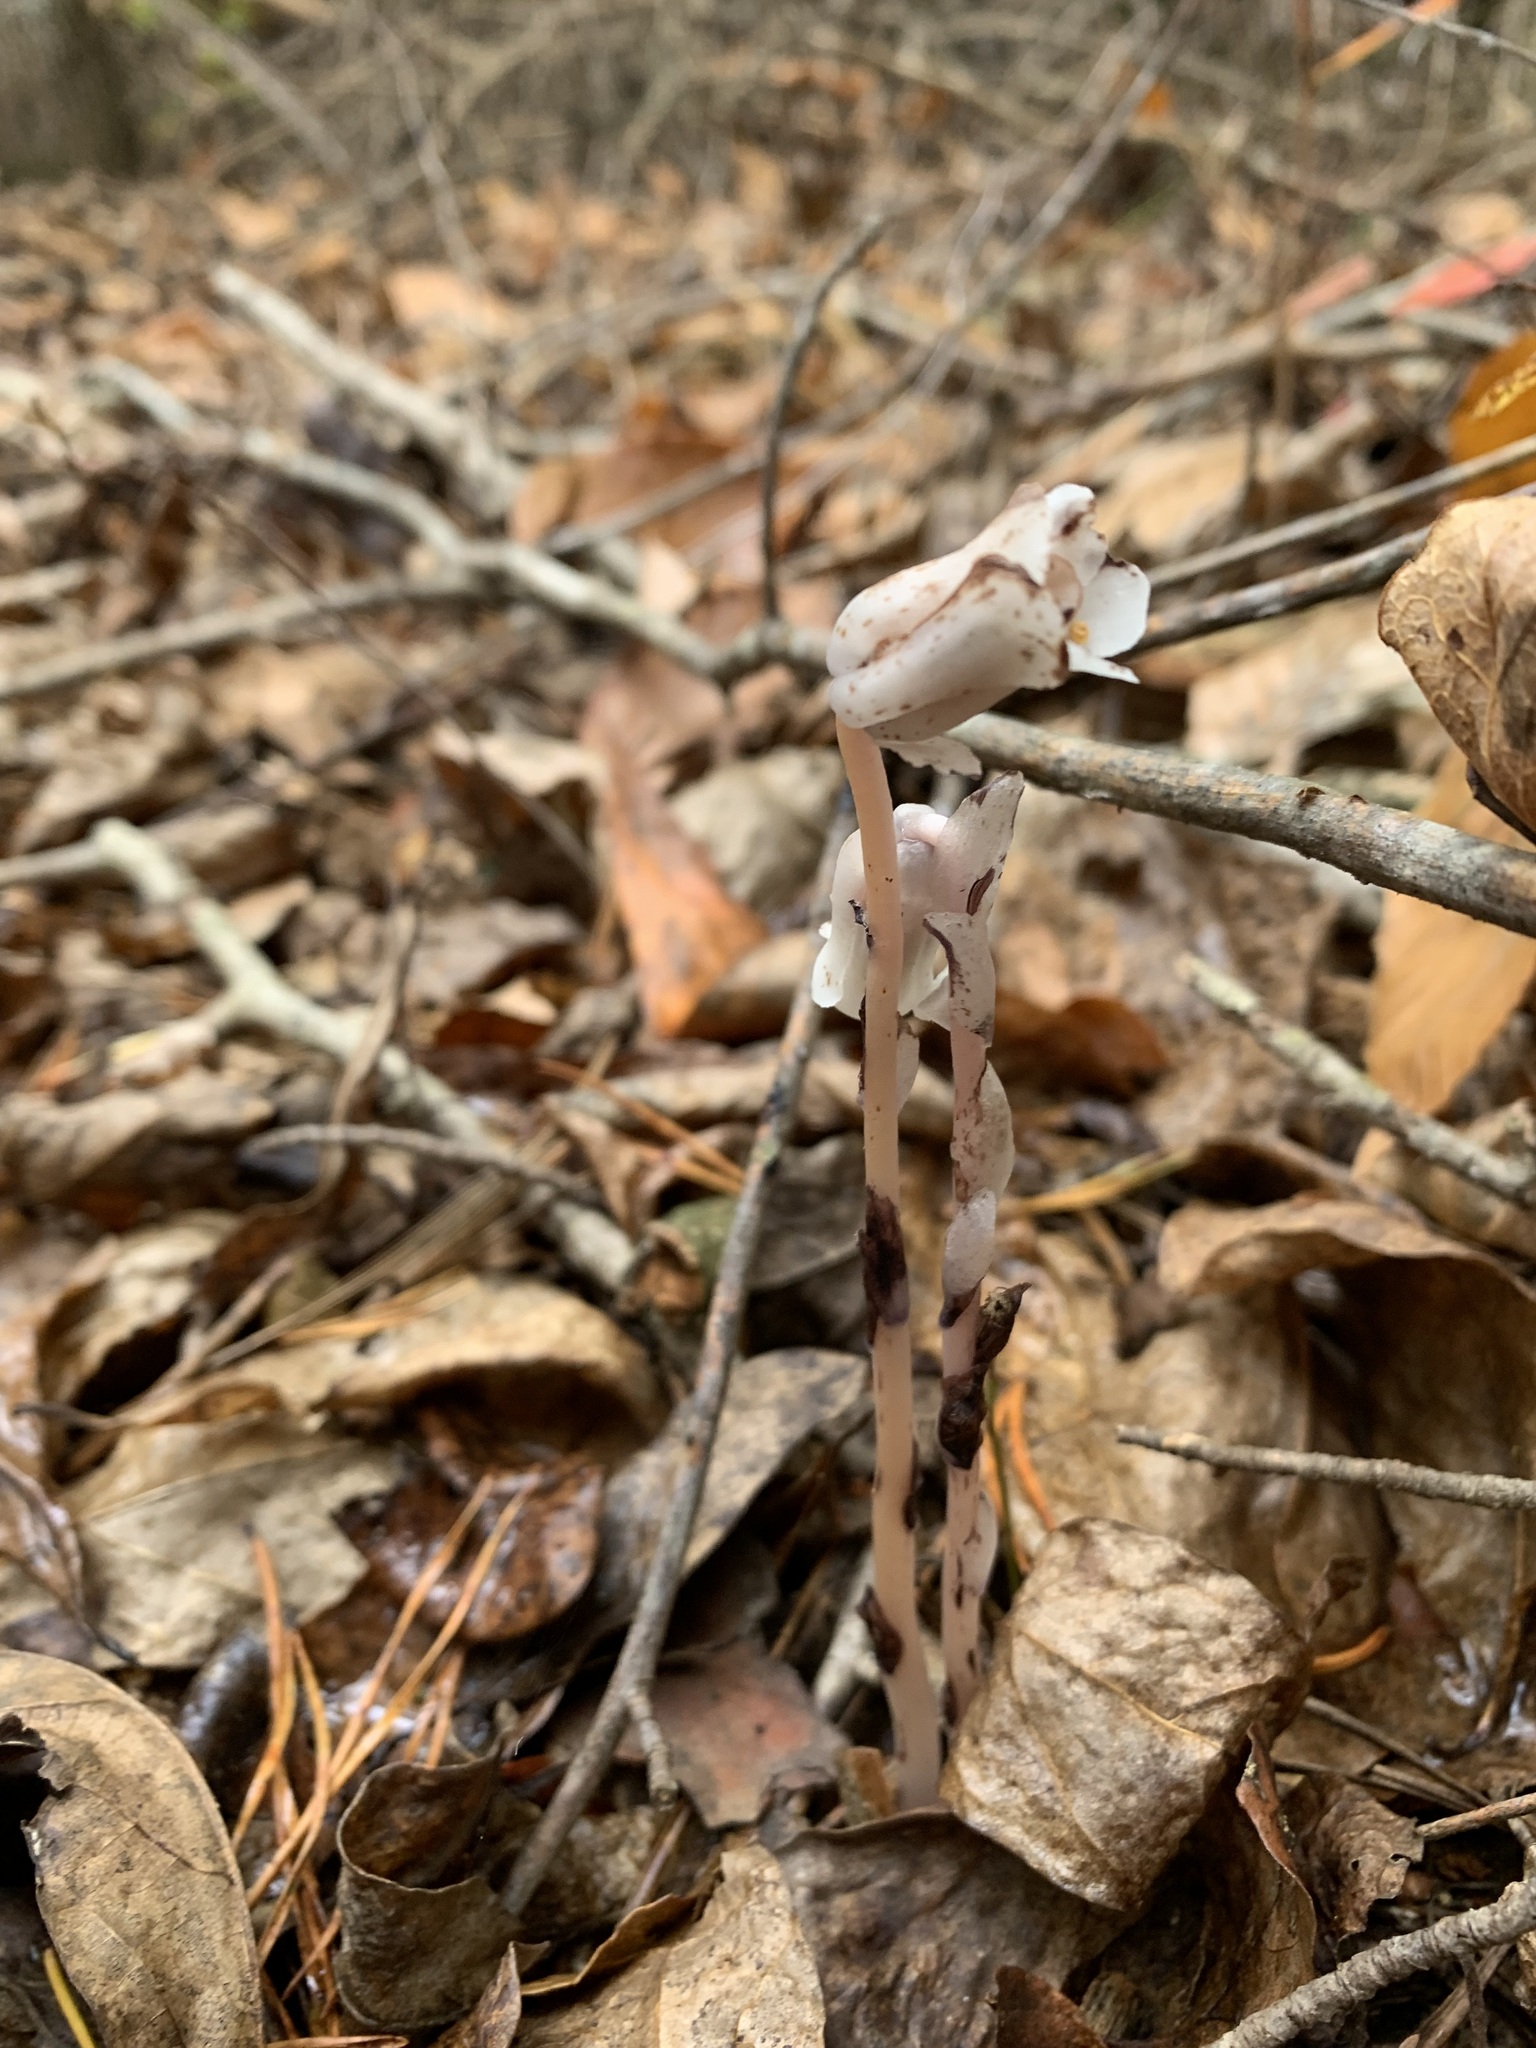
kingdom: Plantae
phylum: Tracheophyta
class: Magnoliopsida
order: Ericales
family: Ericaceae
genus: Monotropa
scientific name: Monotropa uniflora
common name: Convulsion root
